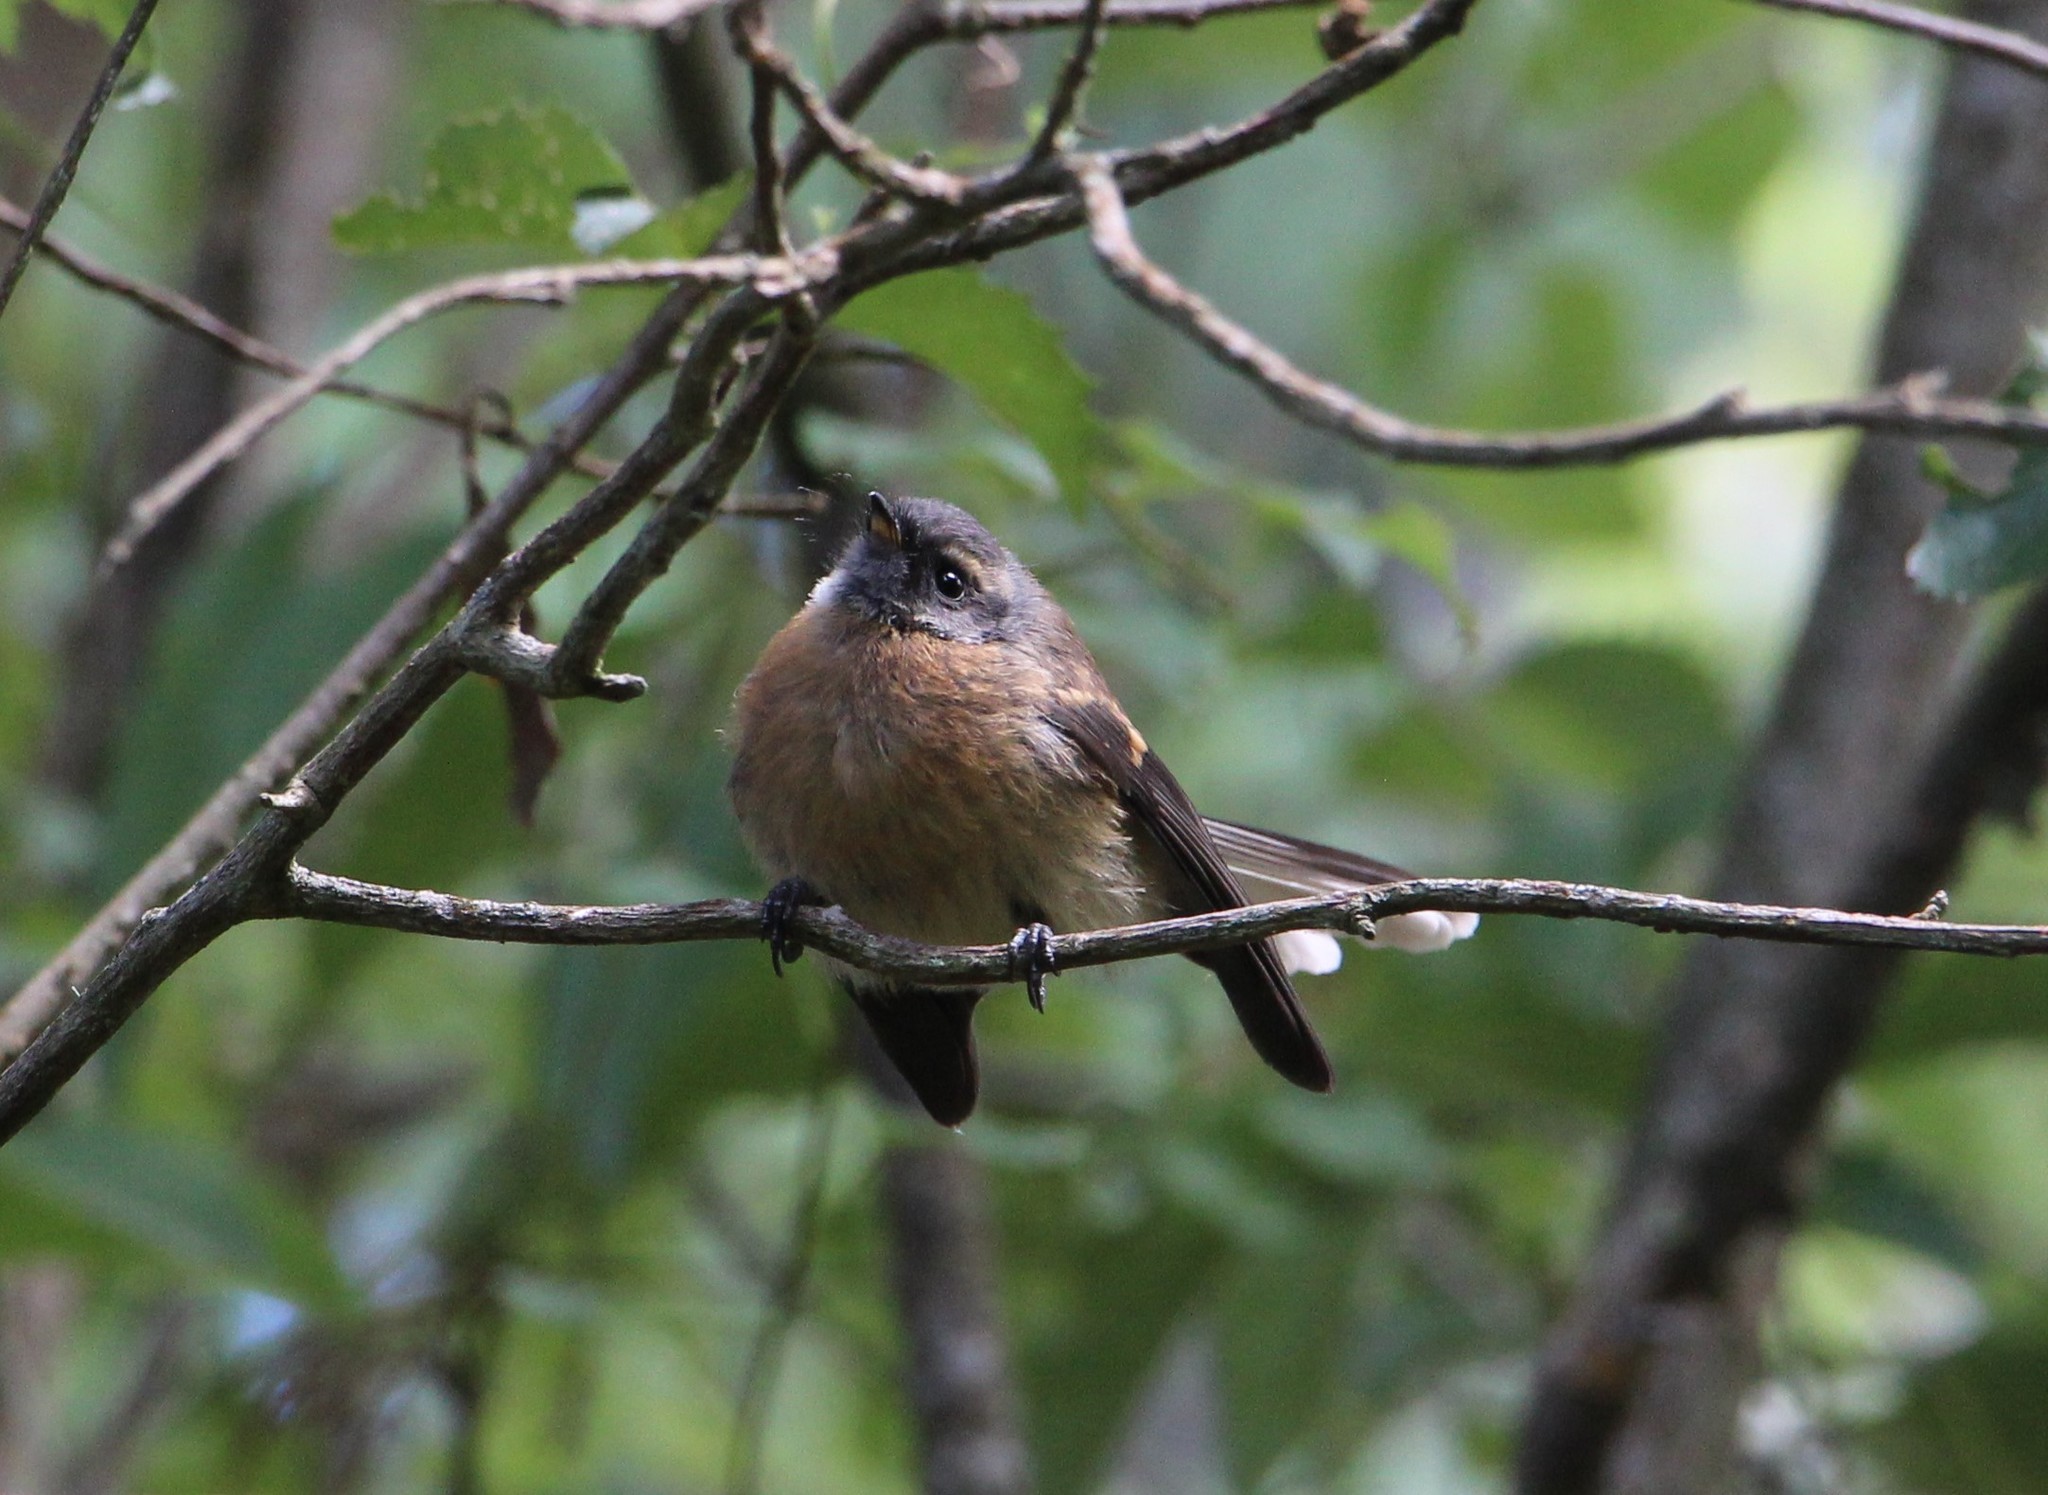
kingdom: Animalia
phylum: Chordata
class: Aves
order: Passeriformes
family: Rhipiduridae
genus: Rhipidura
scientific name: Rhipidura fuliginosa
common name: New zealand fantail
